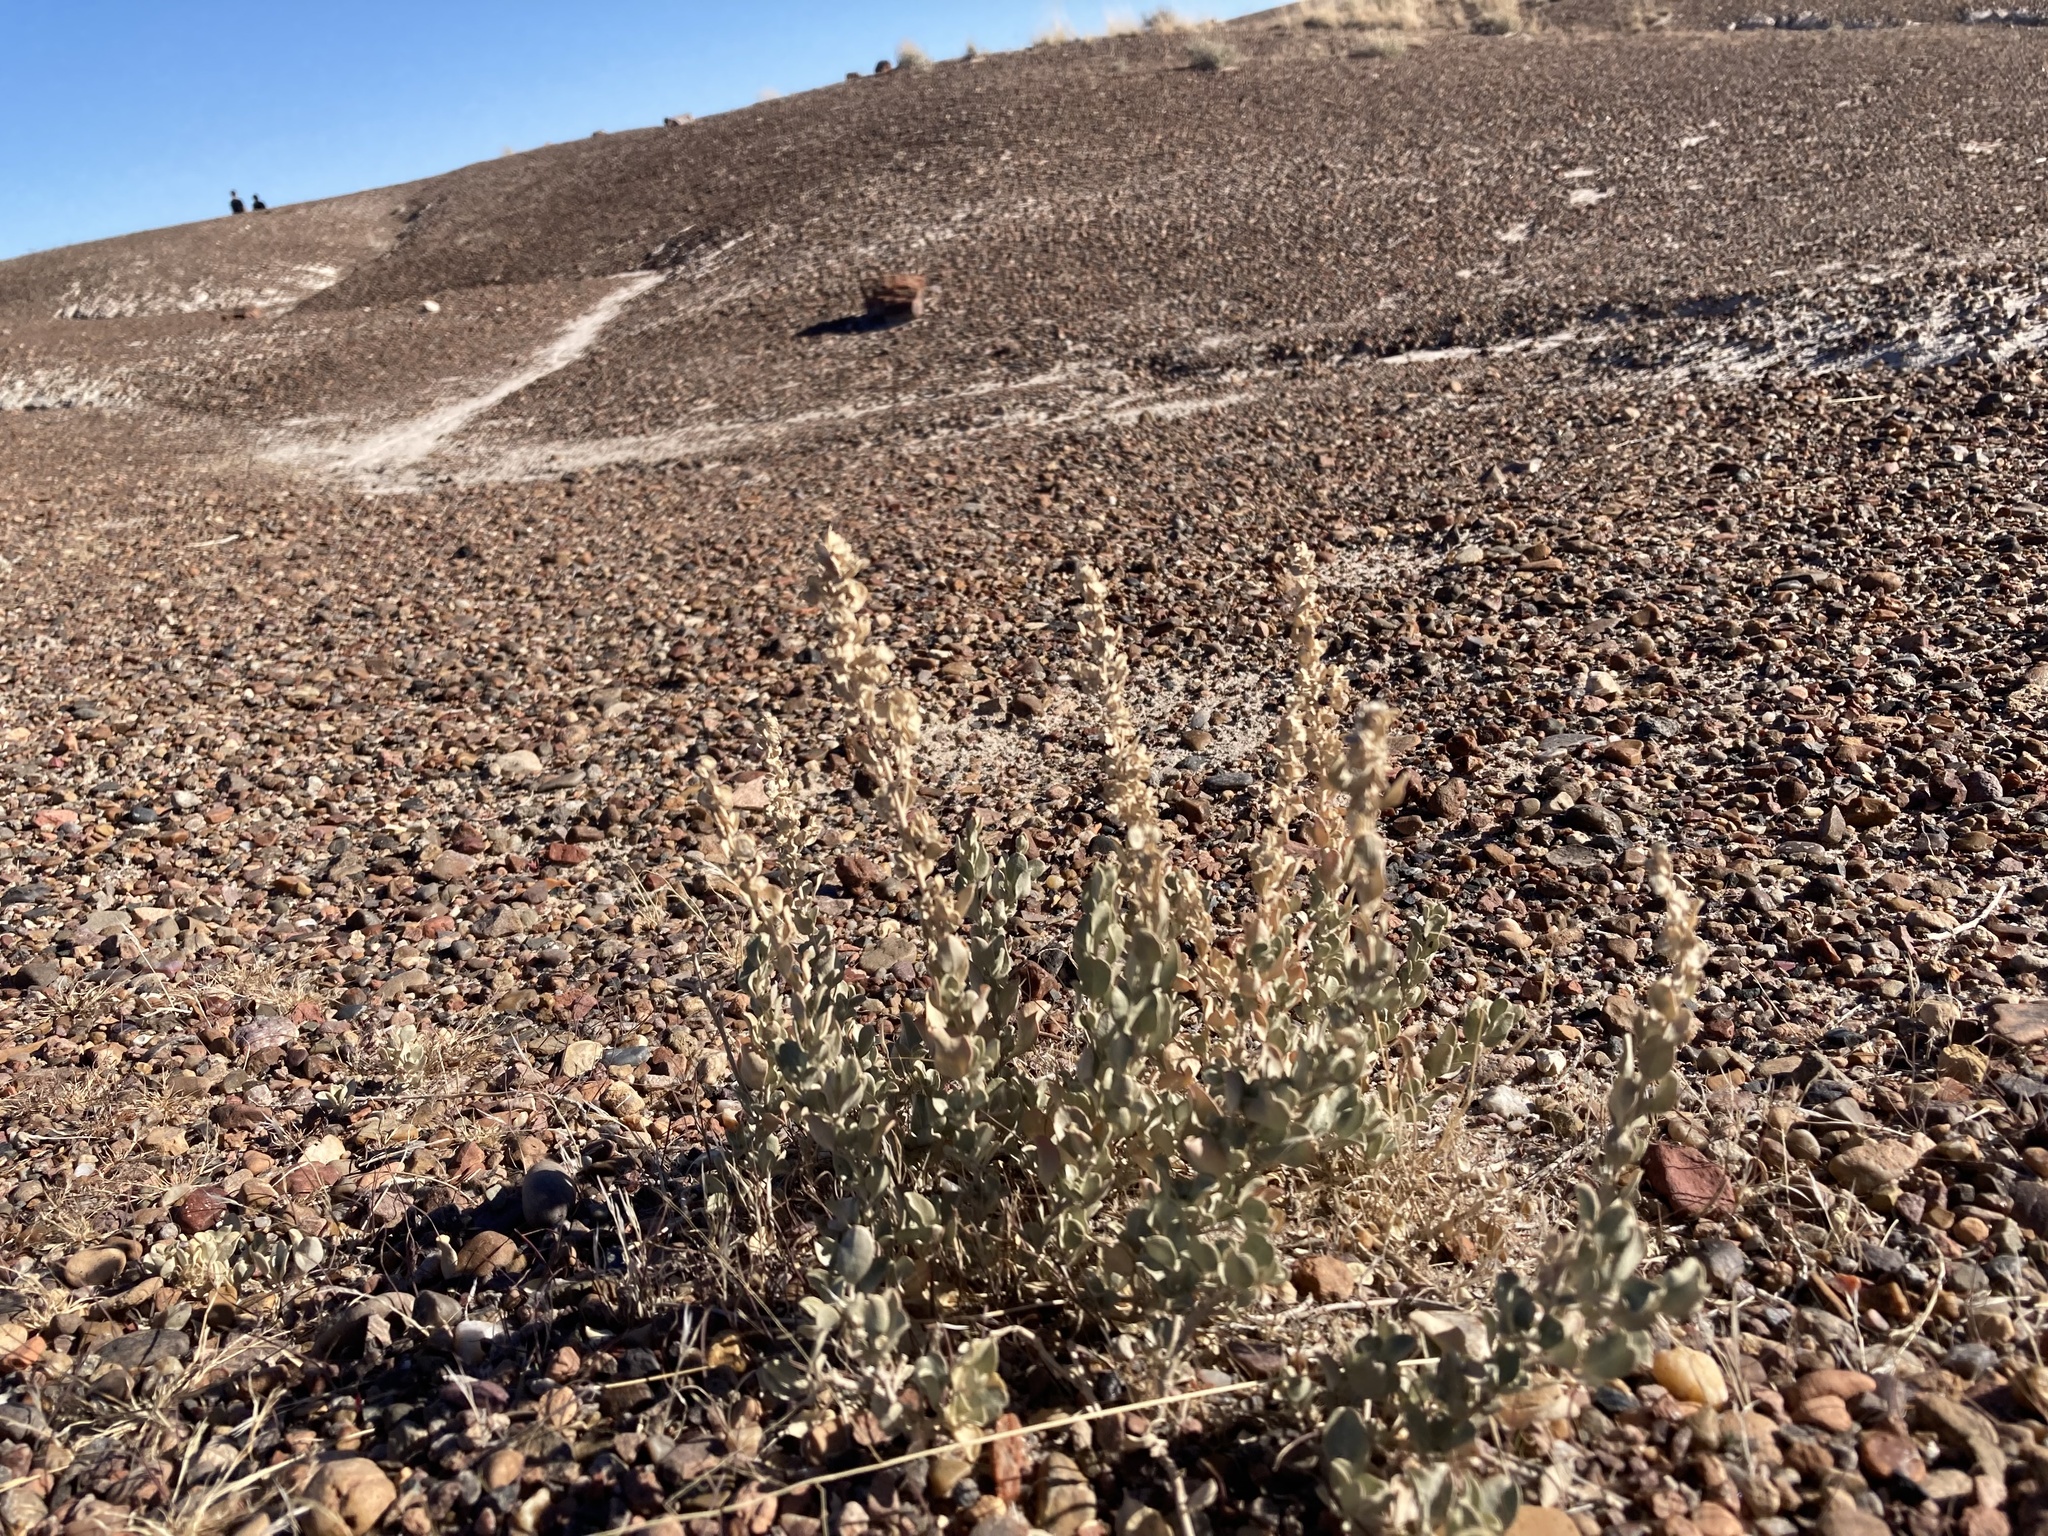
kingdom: Plantae
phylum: Tracheophyta
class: Magnoliopsida
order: Caryophyllales
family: Amaranthaceae
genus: Atriplex
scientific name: Atriplex confertifolia
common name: Shadscale
